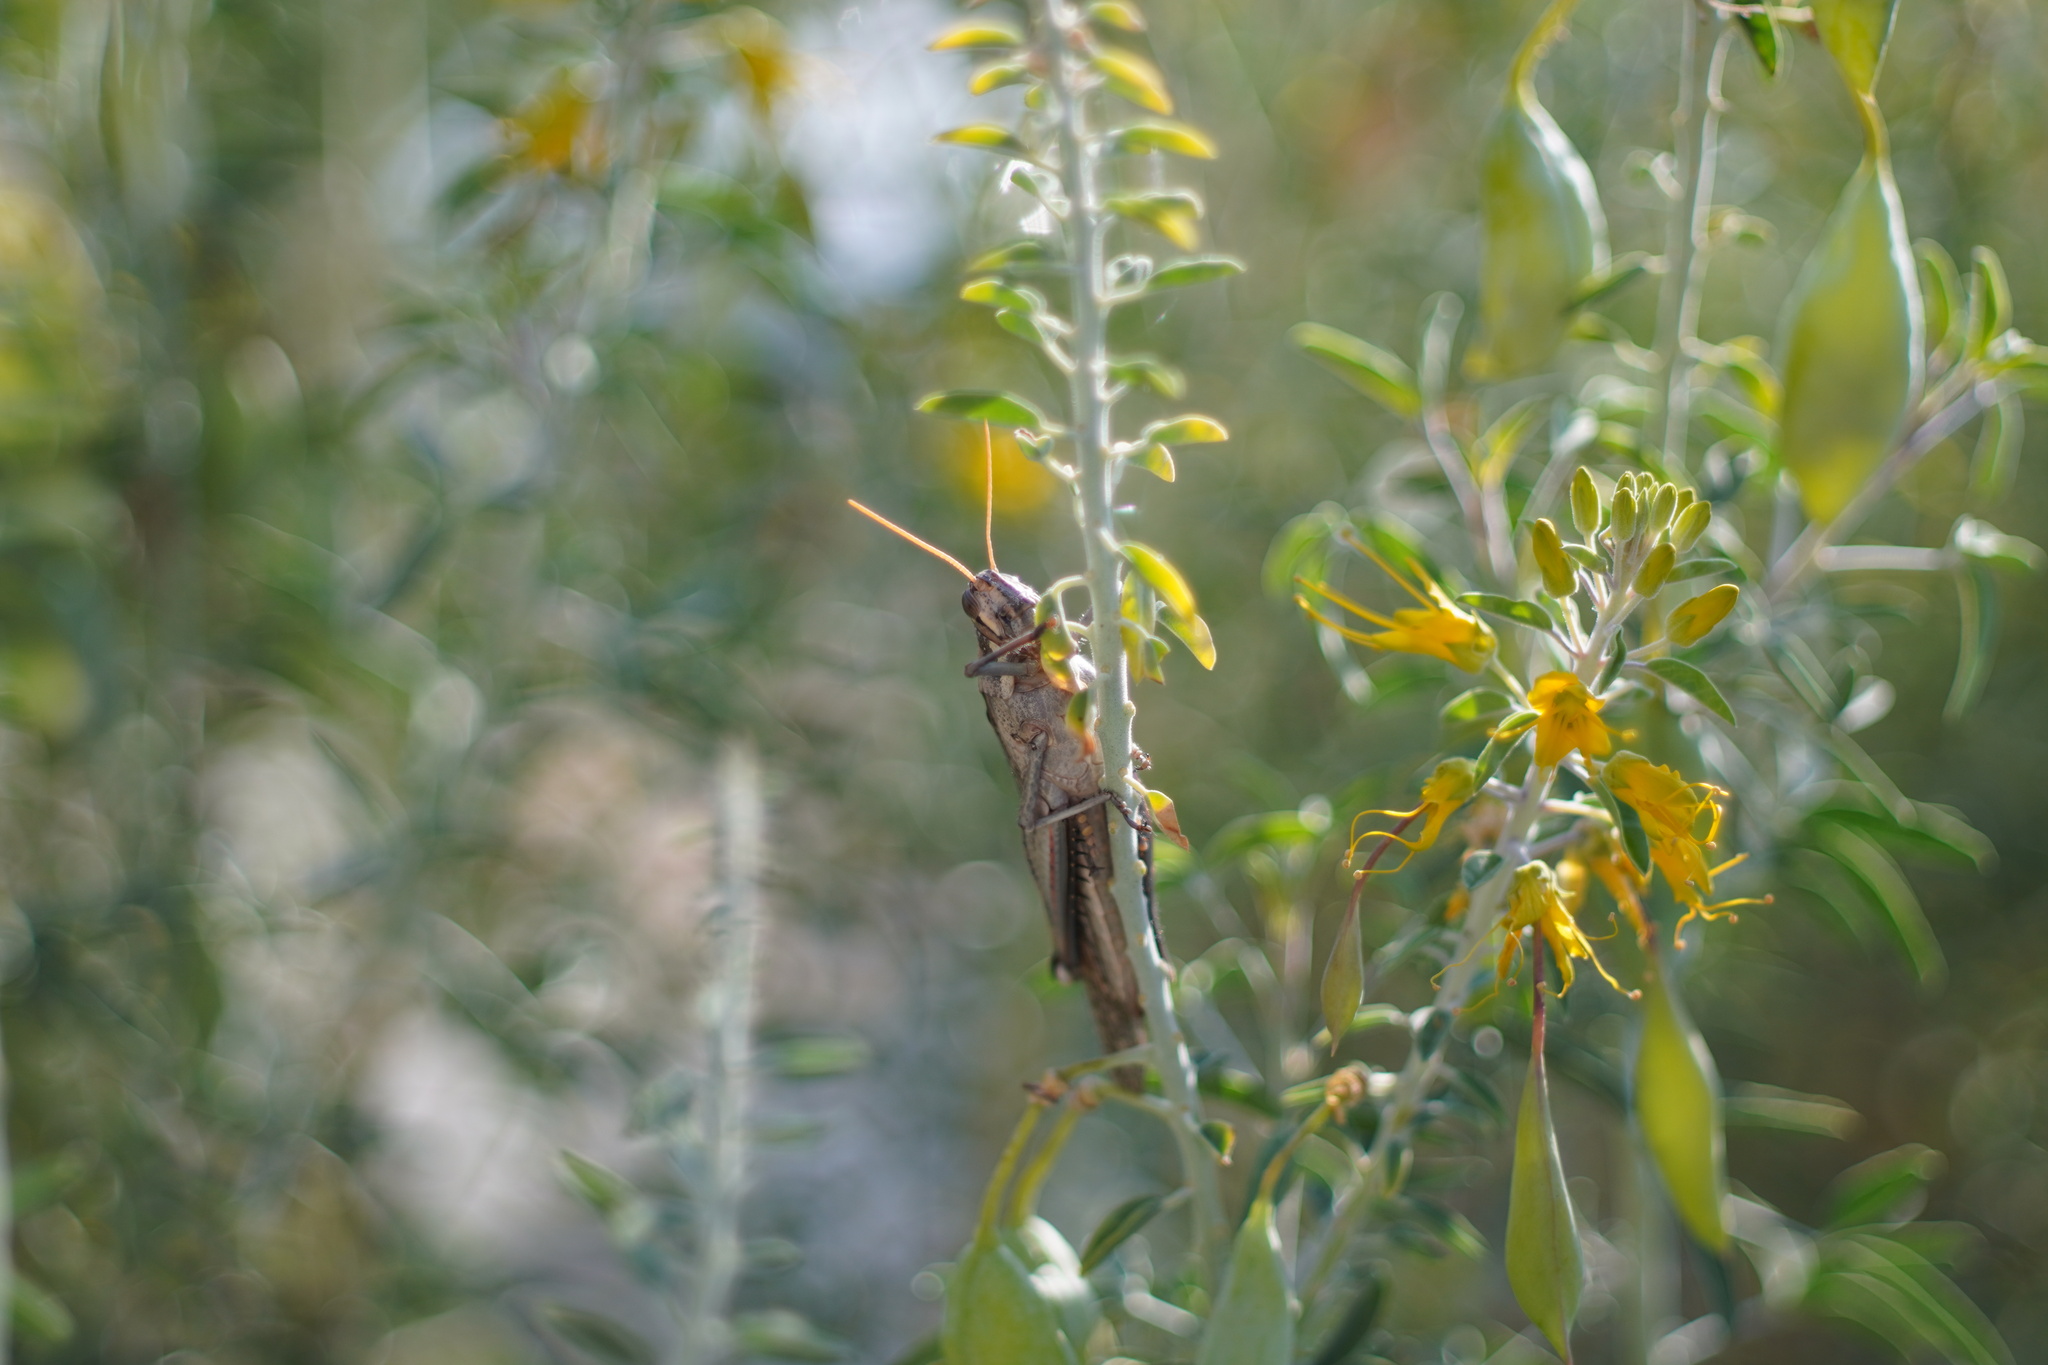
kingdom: Animalia
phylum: Arthropoda
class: Insecta
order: Orthoptera
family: Acrididae
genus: Schistocerca
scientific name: Schistocerca nitens
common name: Vagrant grasshopper
